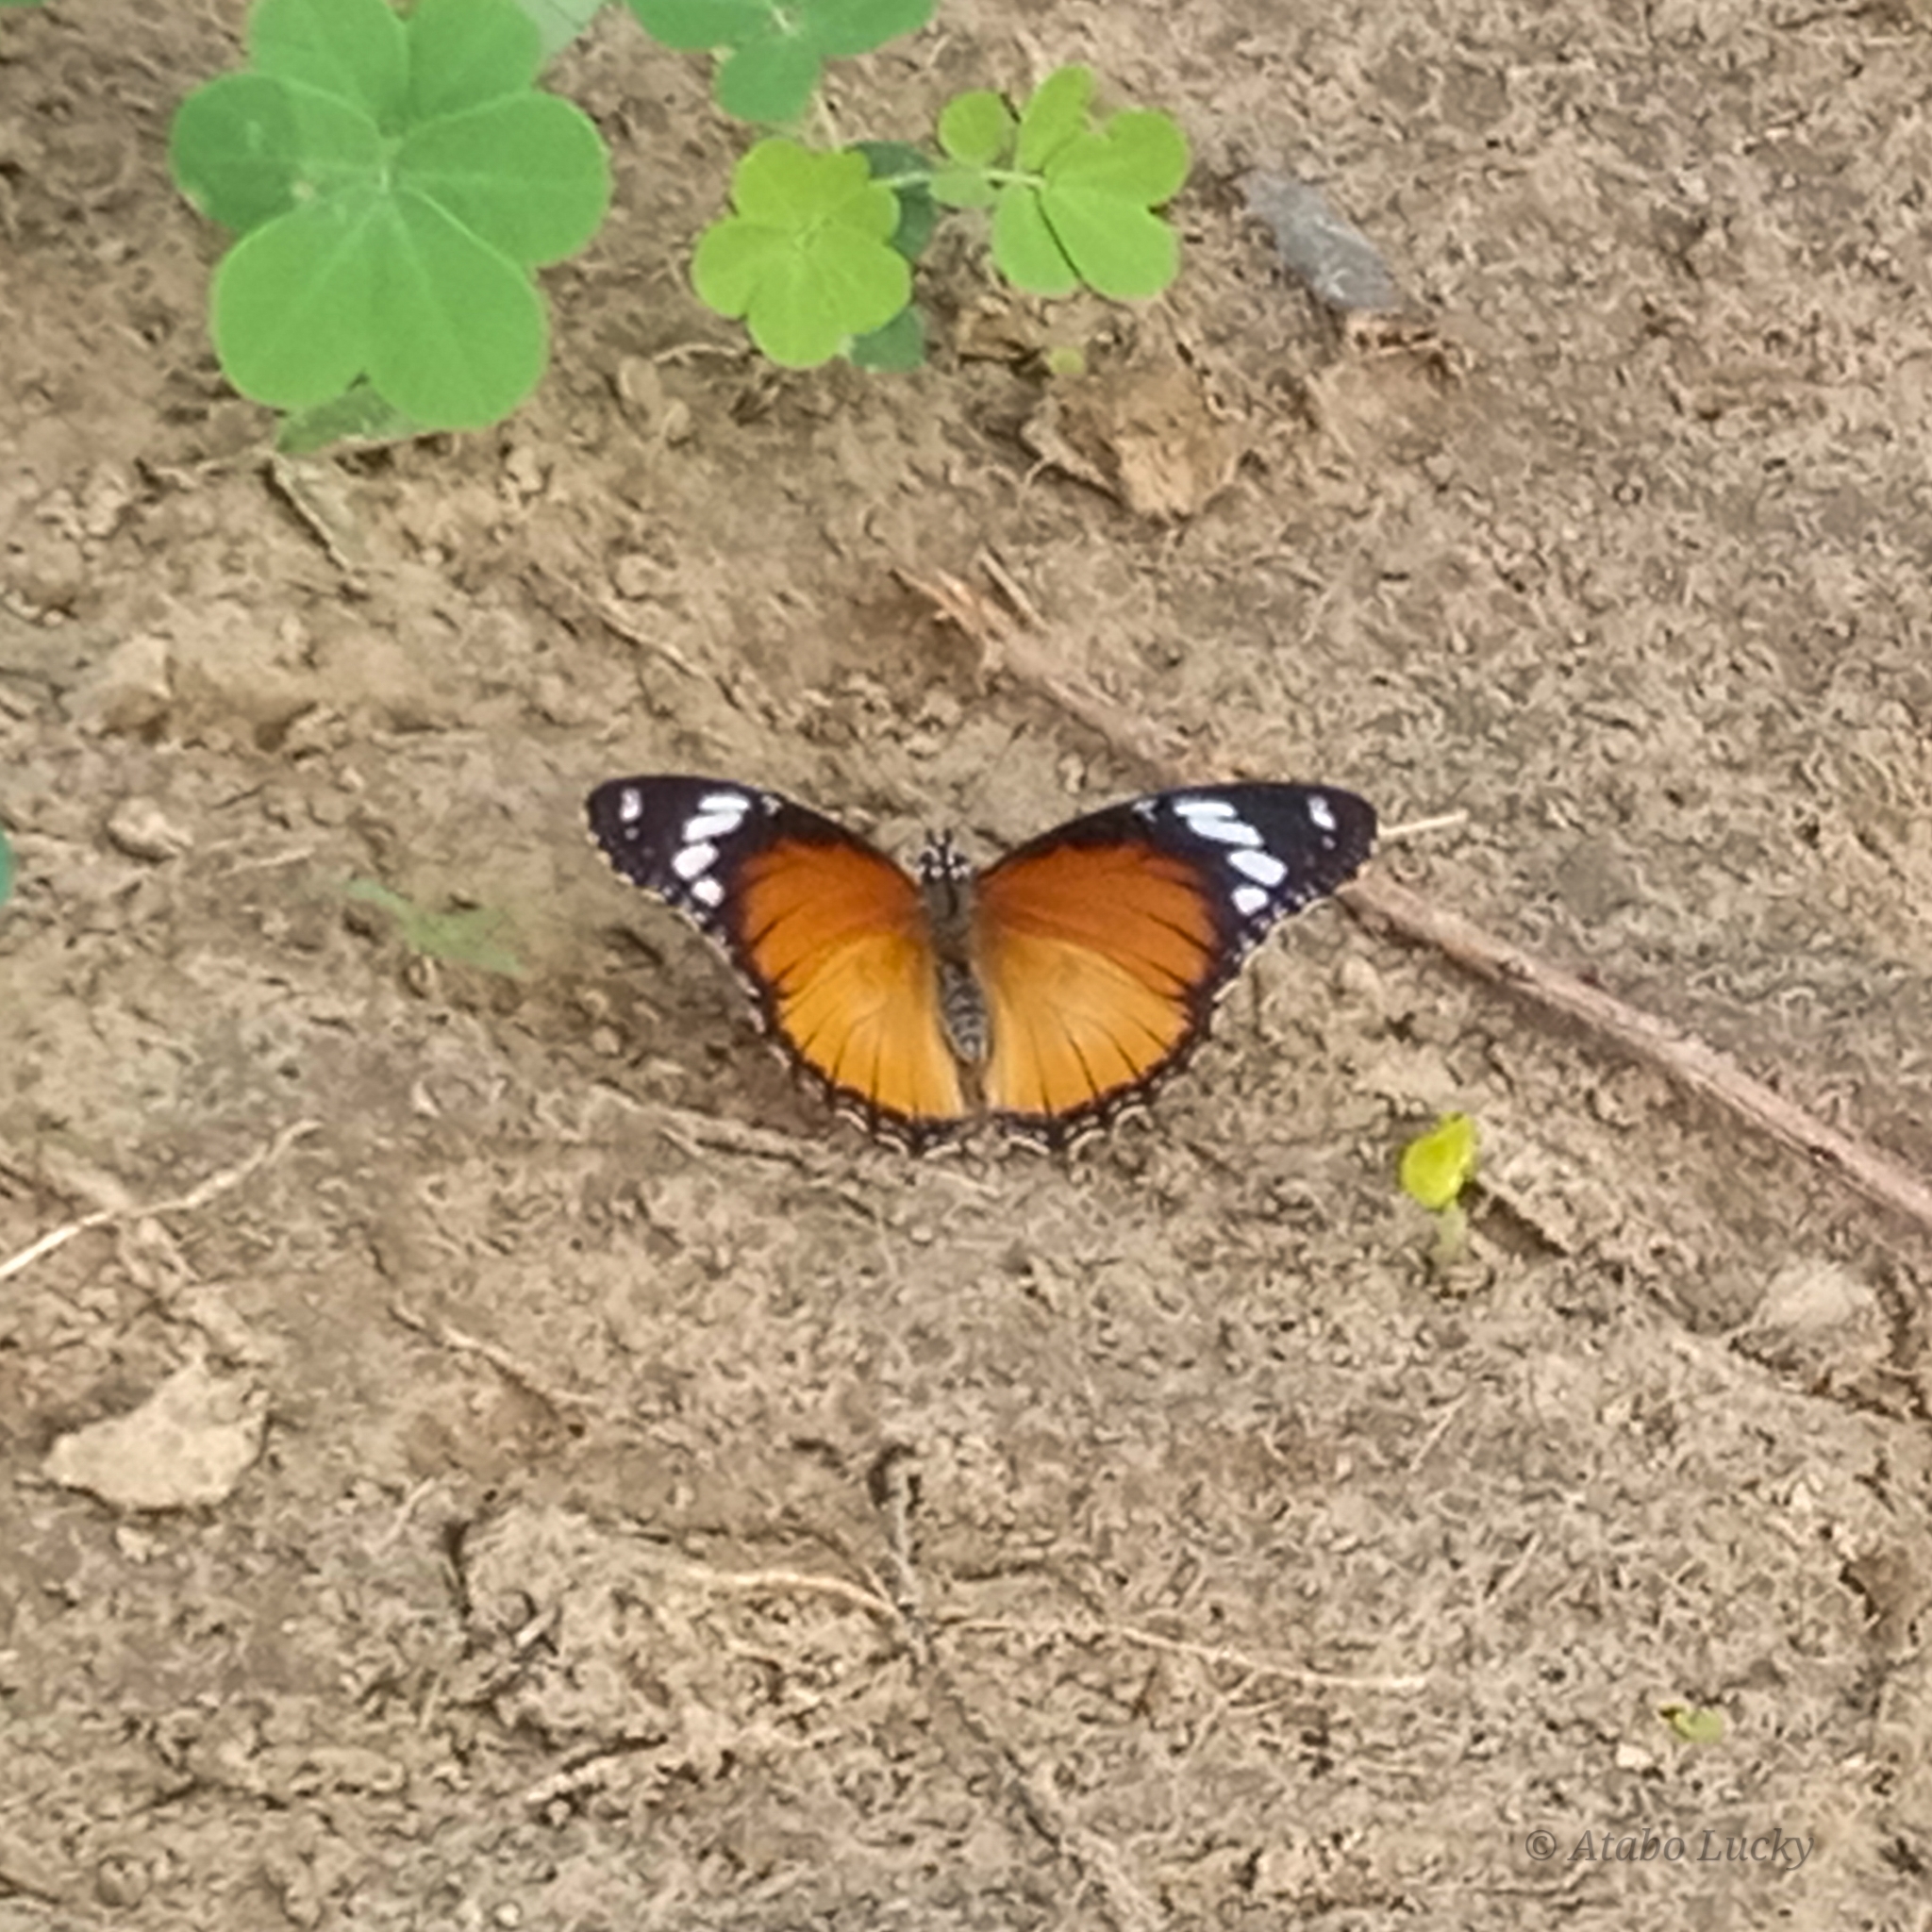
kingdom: Animalia
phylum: Arthropoda
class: Insecta
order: Lepidoptera
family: Nymphalidae
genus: Hypolimnas
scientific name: Hypolimnas misippus
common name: False plain tiger
